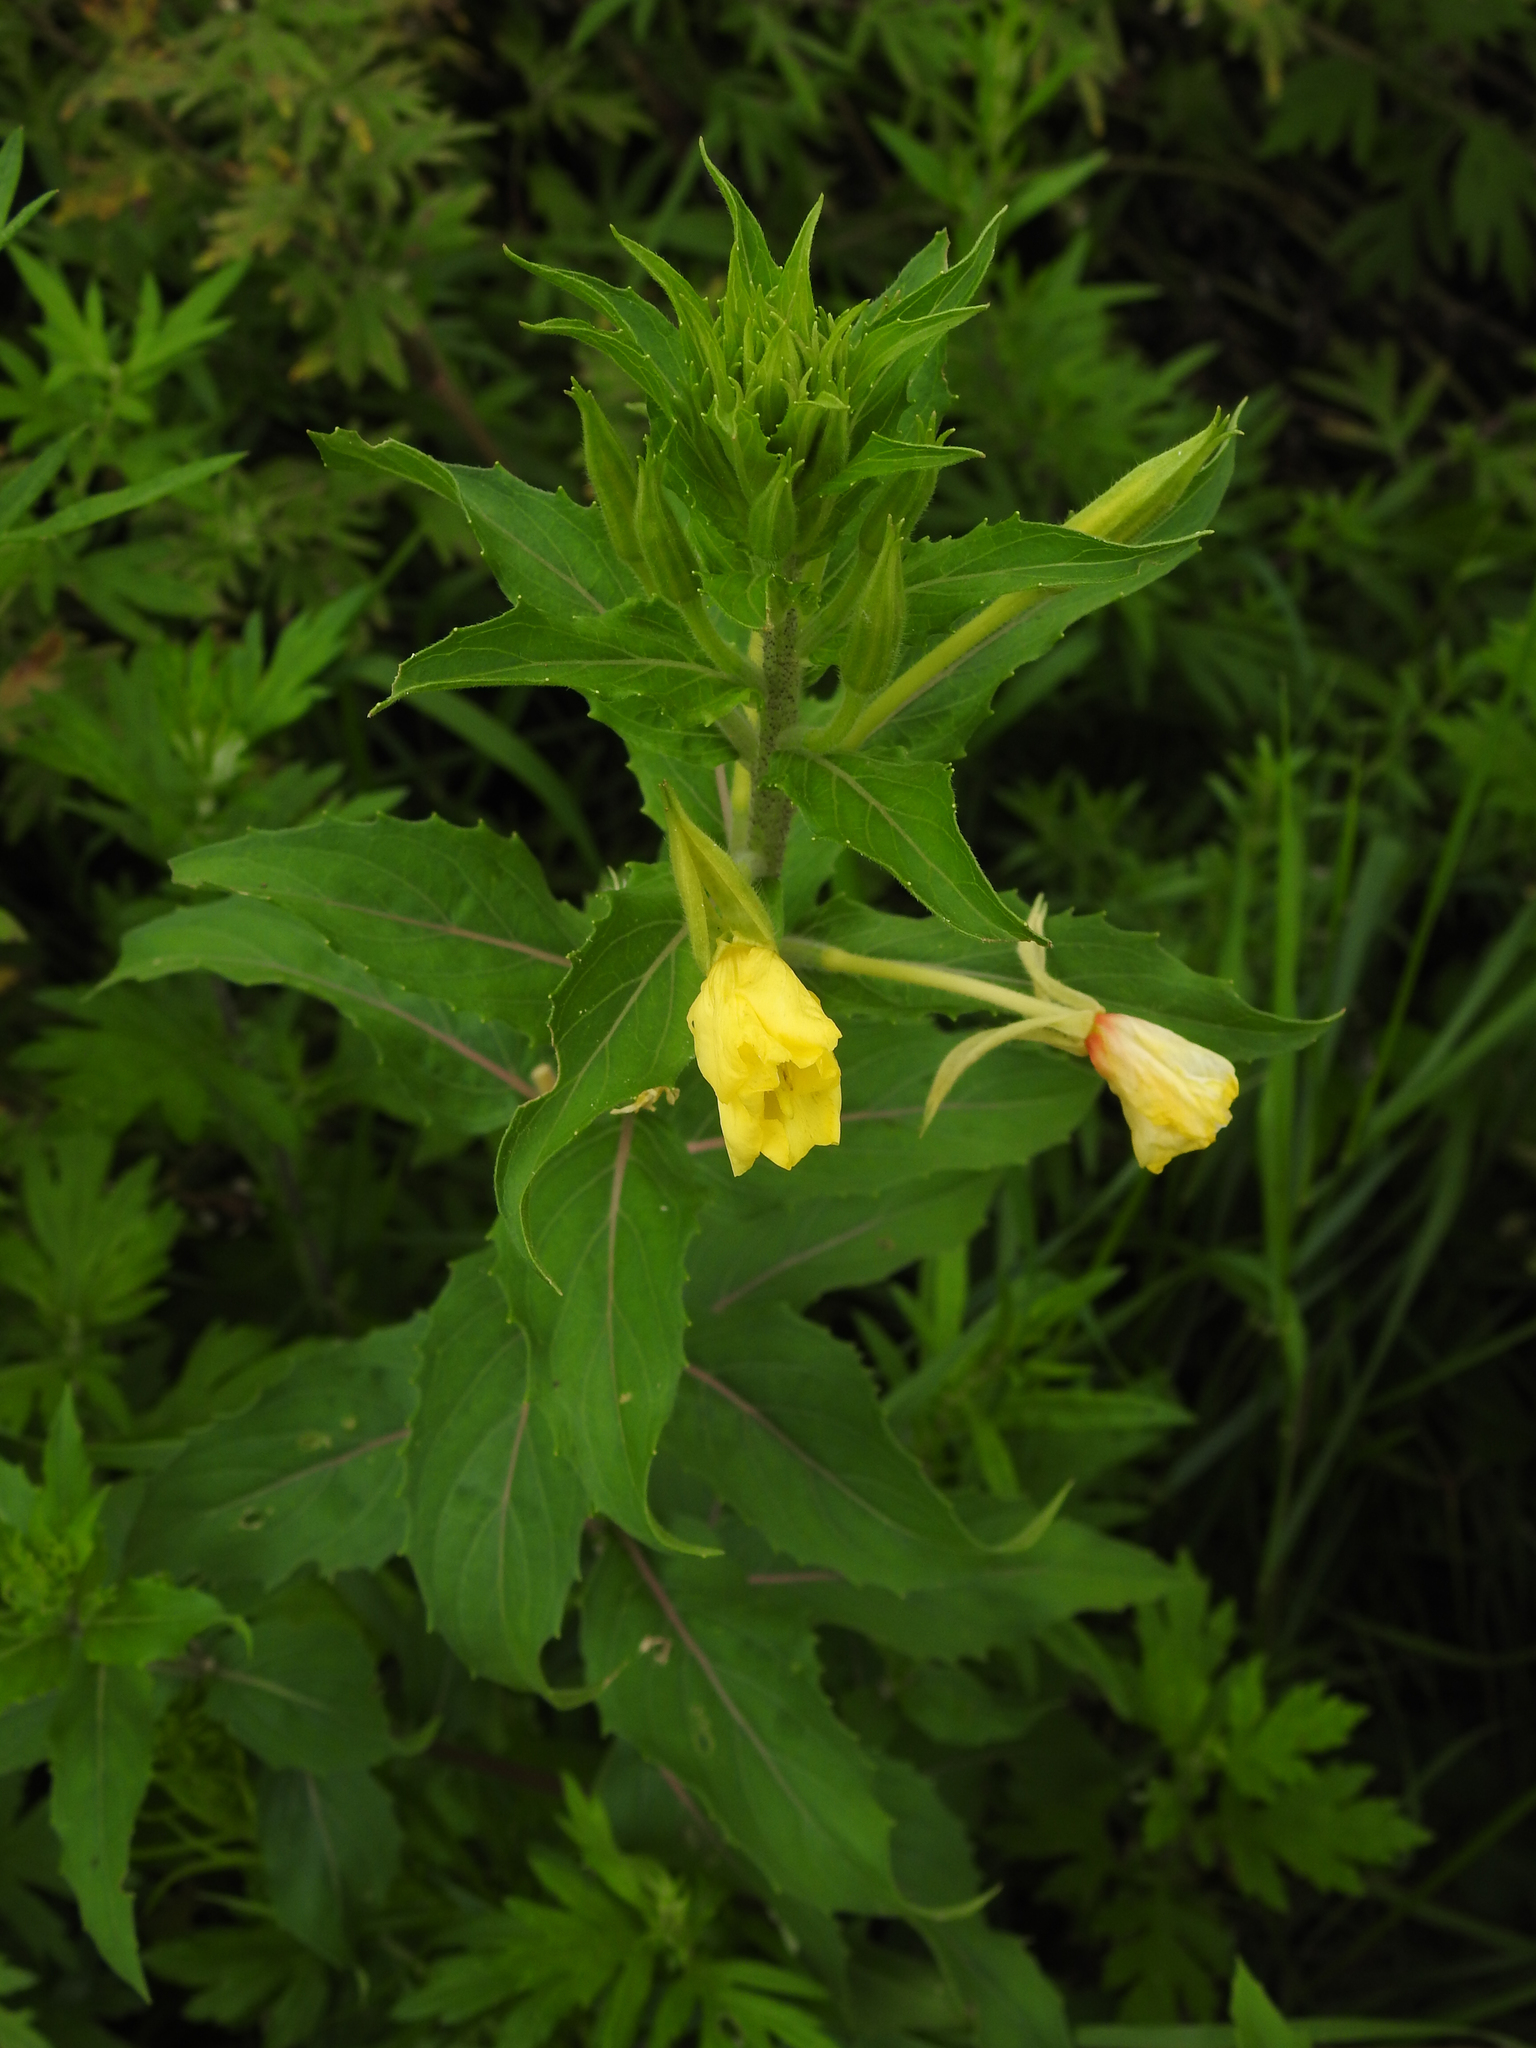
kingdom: Plantae
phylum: Tracheophyta
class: Magnoliopsida
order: Myrtales
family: Onagraceae
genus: Oenothera
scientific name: Oenothera biennis
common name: Common evening-primrose
